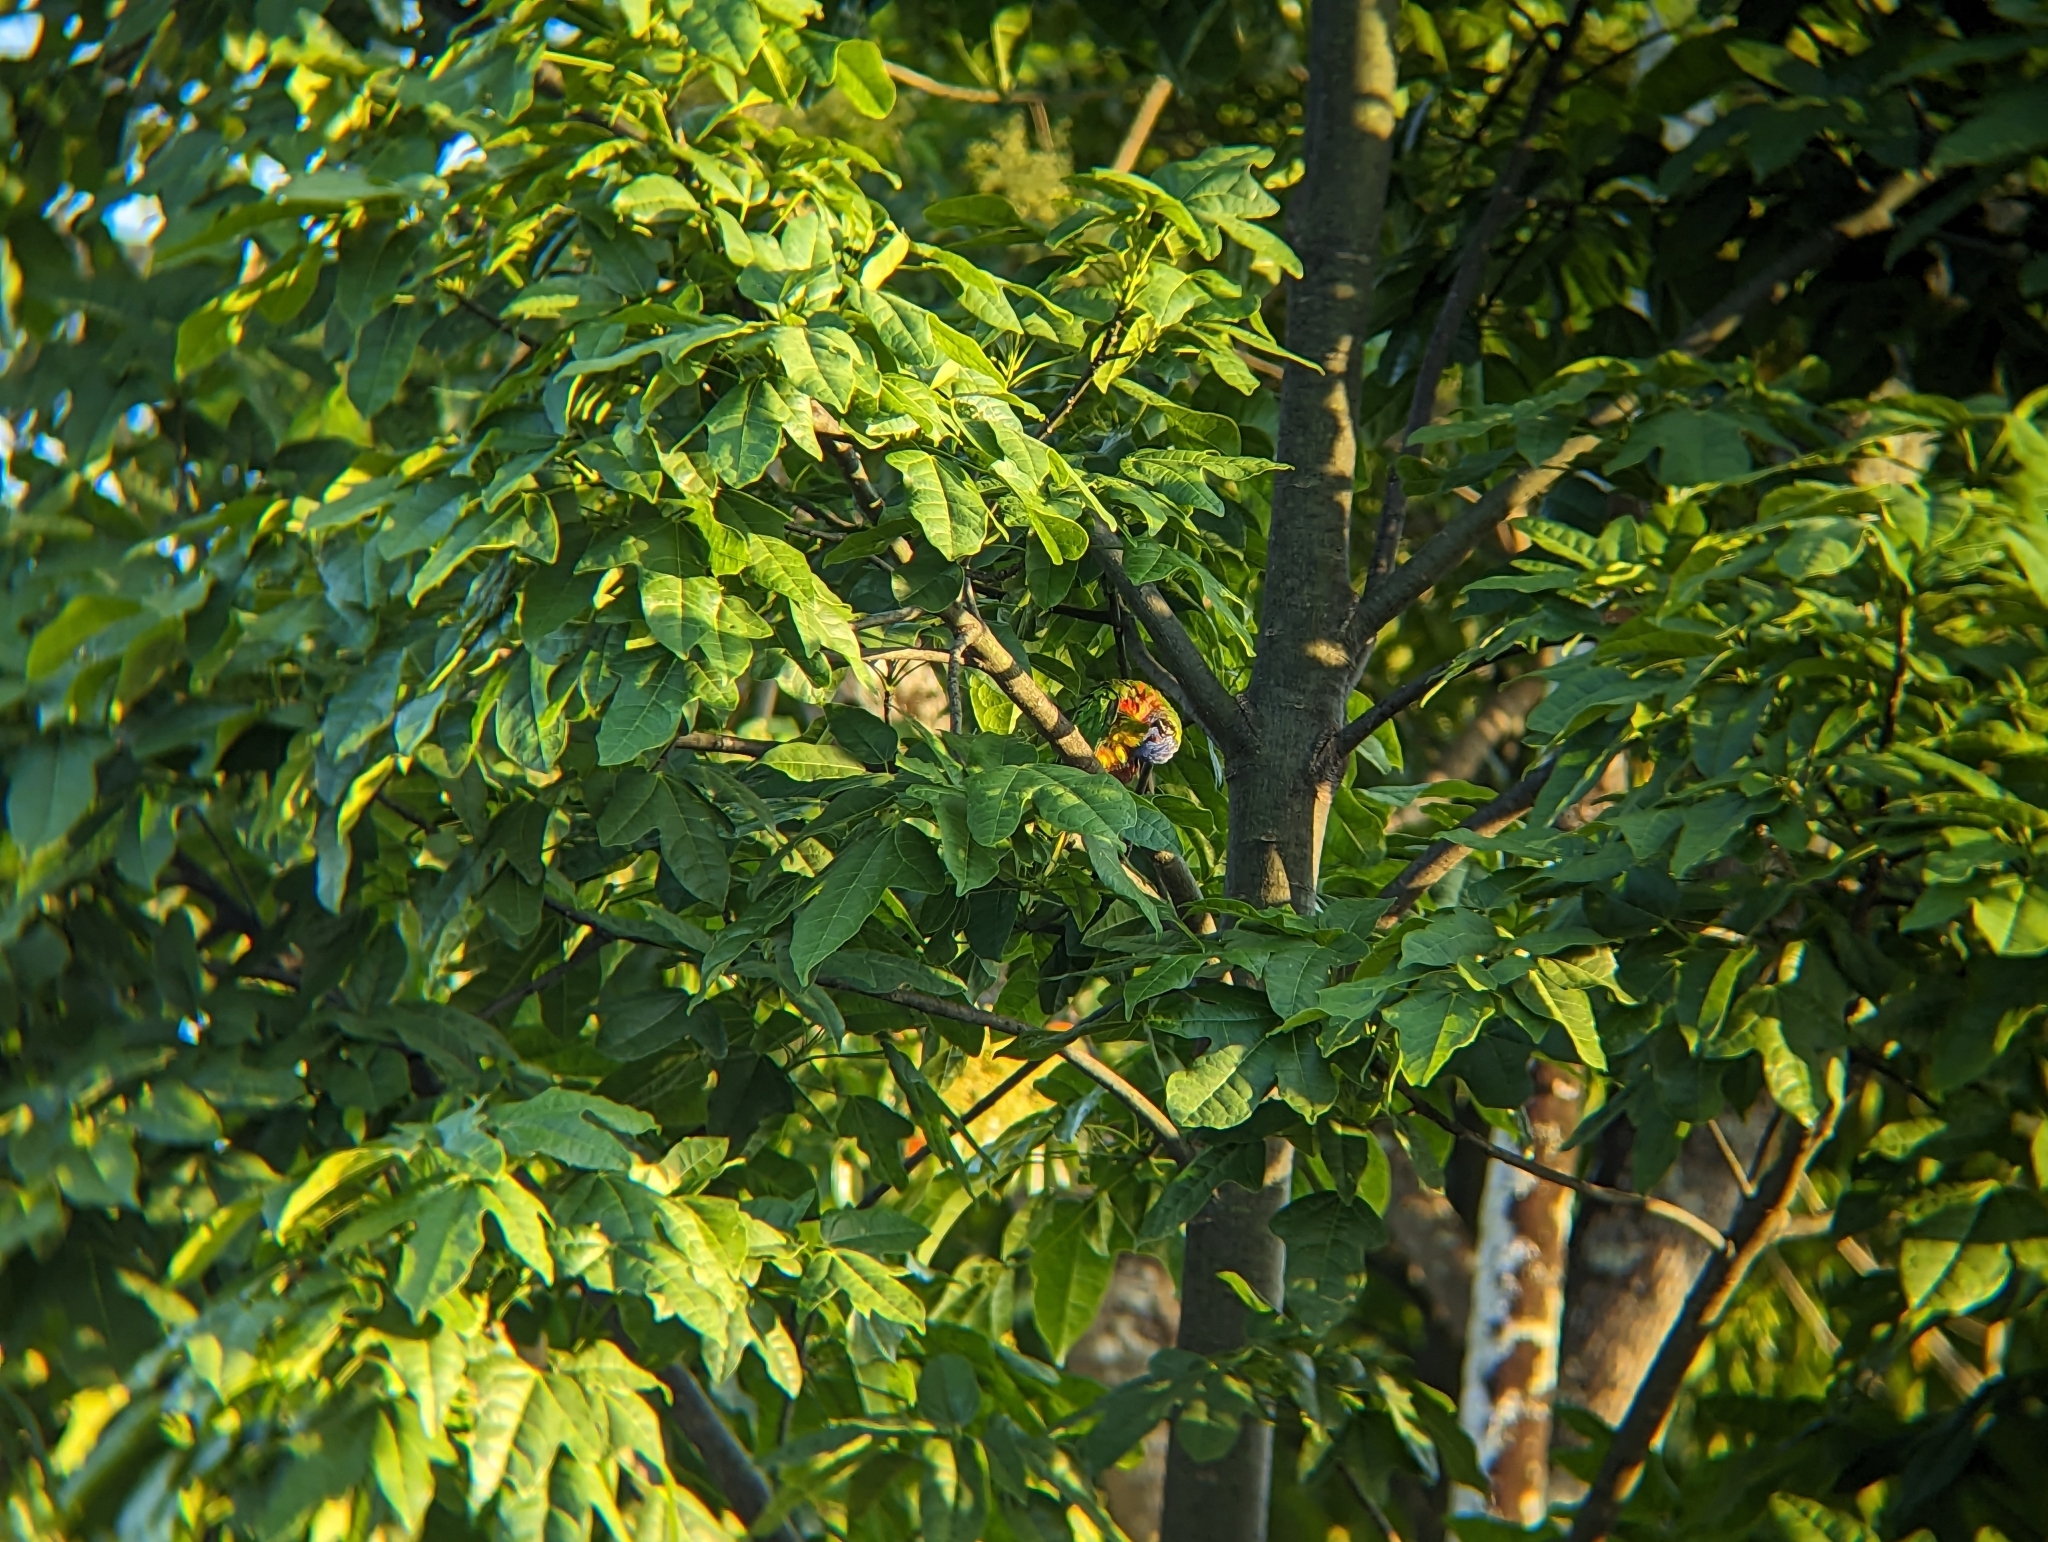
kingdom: Animalia
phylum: Chordata
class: Aves
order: Psittaciformes
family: Psittacidae
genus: Trichoglossus
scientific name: Trichoglossus haematodus
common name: Coconut lorikeet
